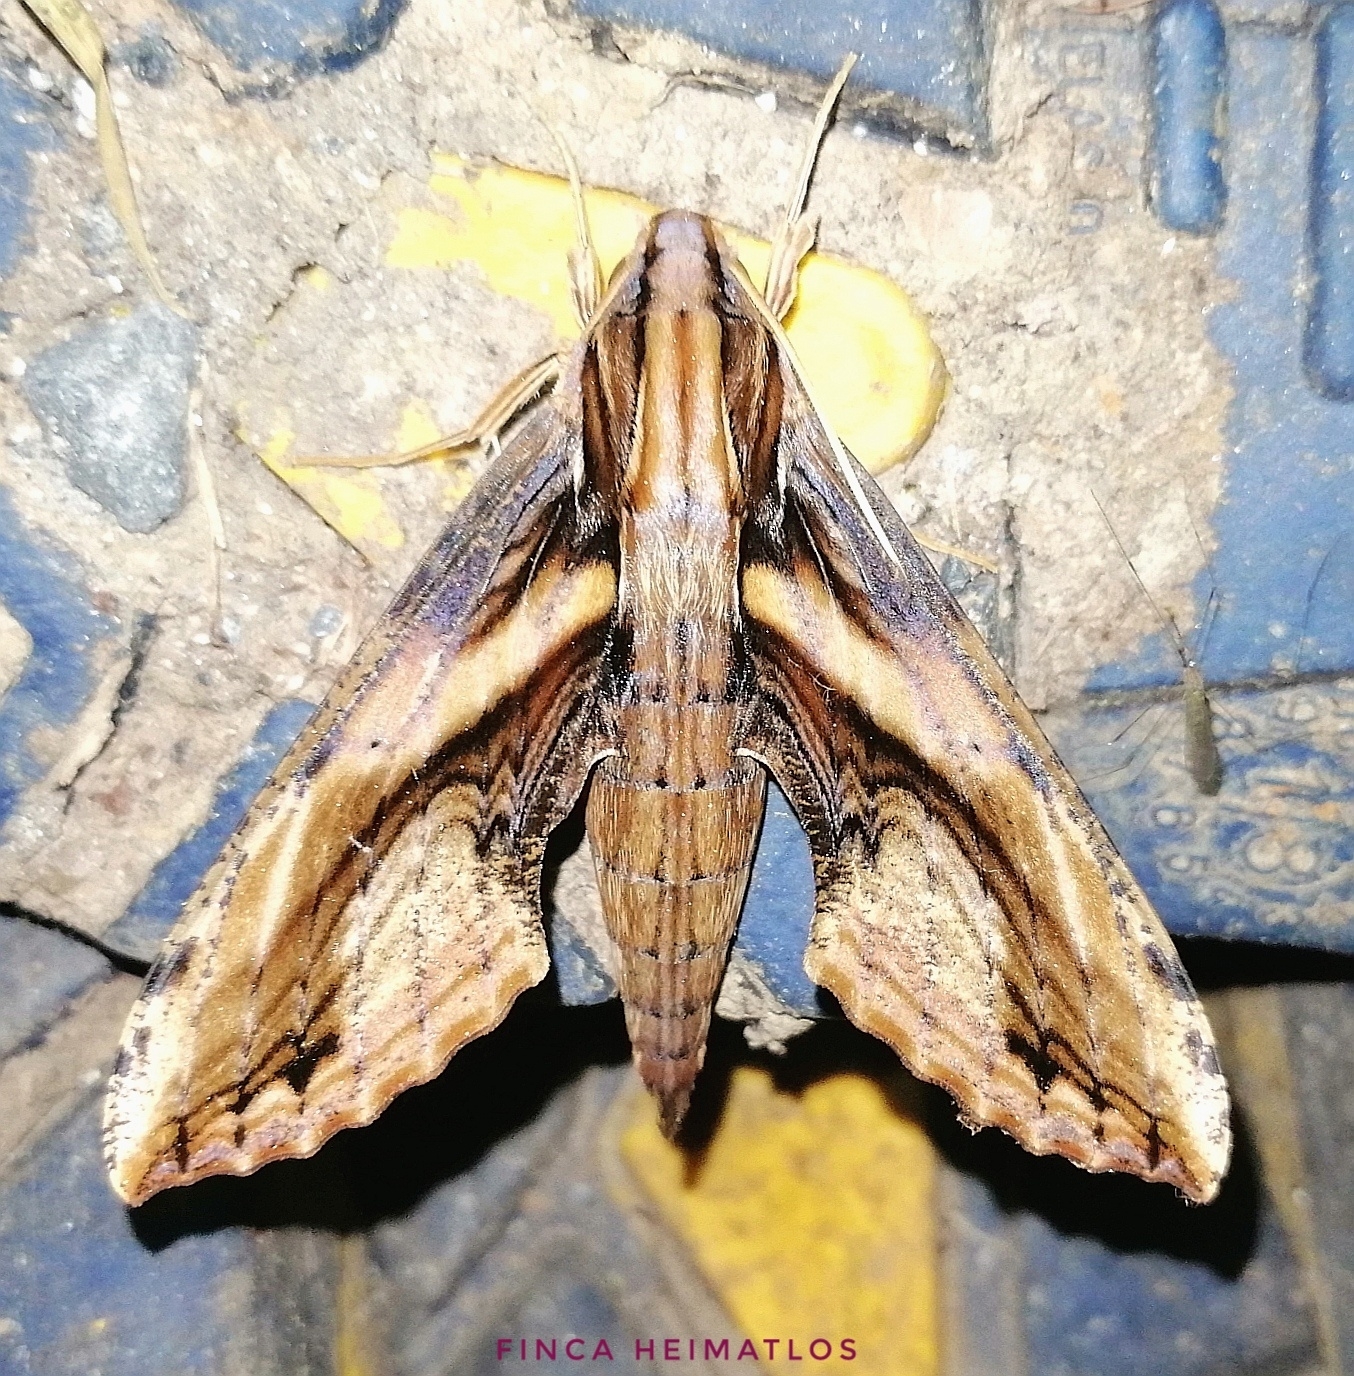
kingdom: Animalia
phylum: Arthropoda
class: Insecta
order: Lepidoptera
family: Sphingidae
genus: Xylophanes
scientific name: Xylophanes ceratomioides
